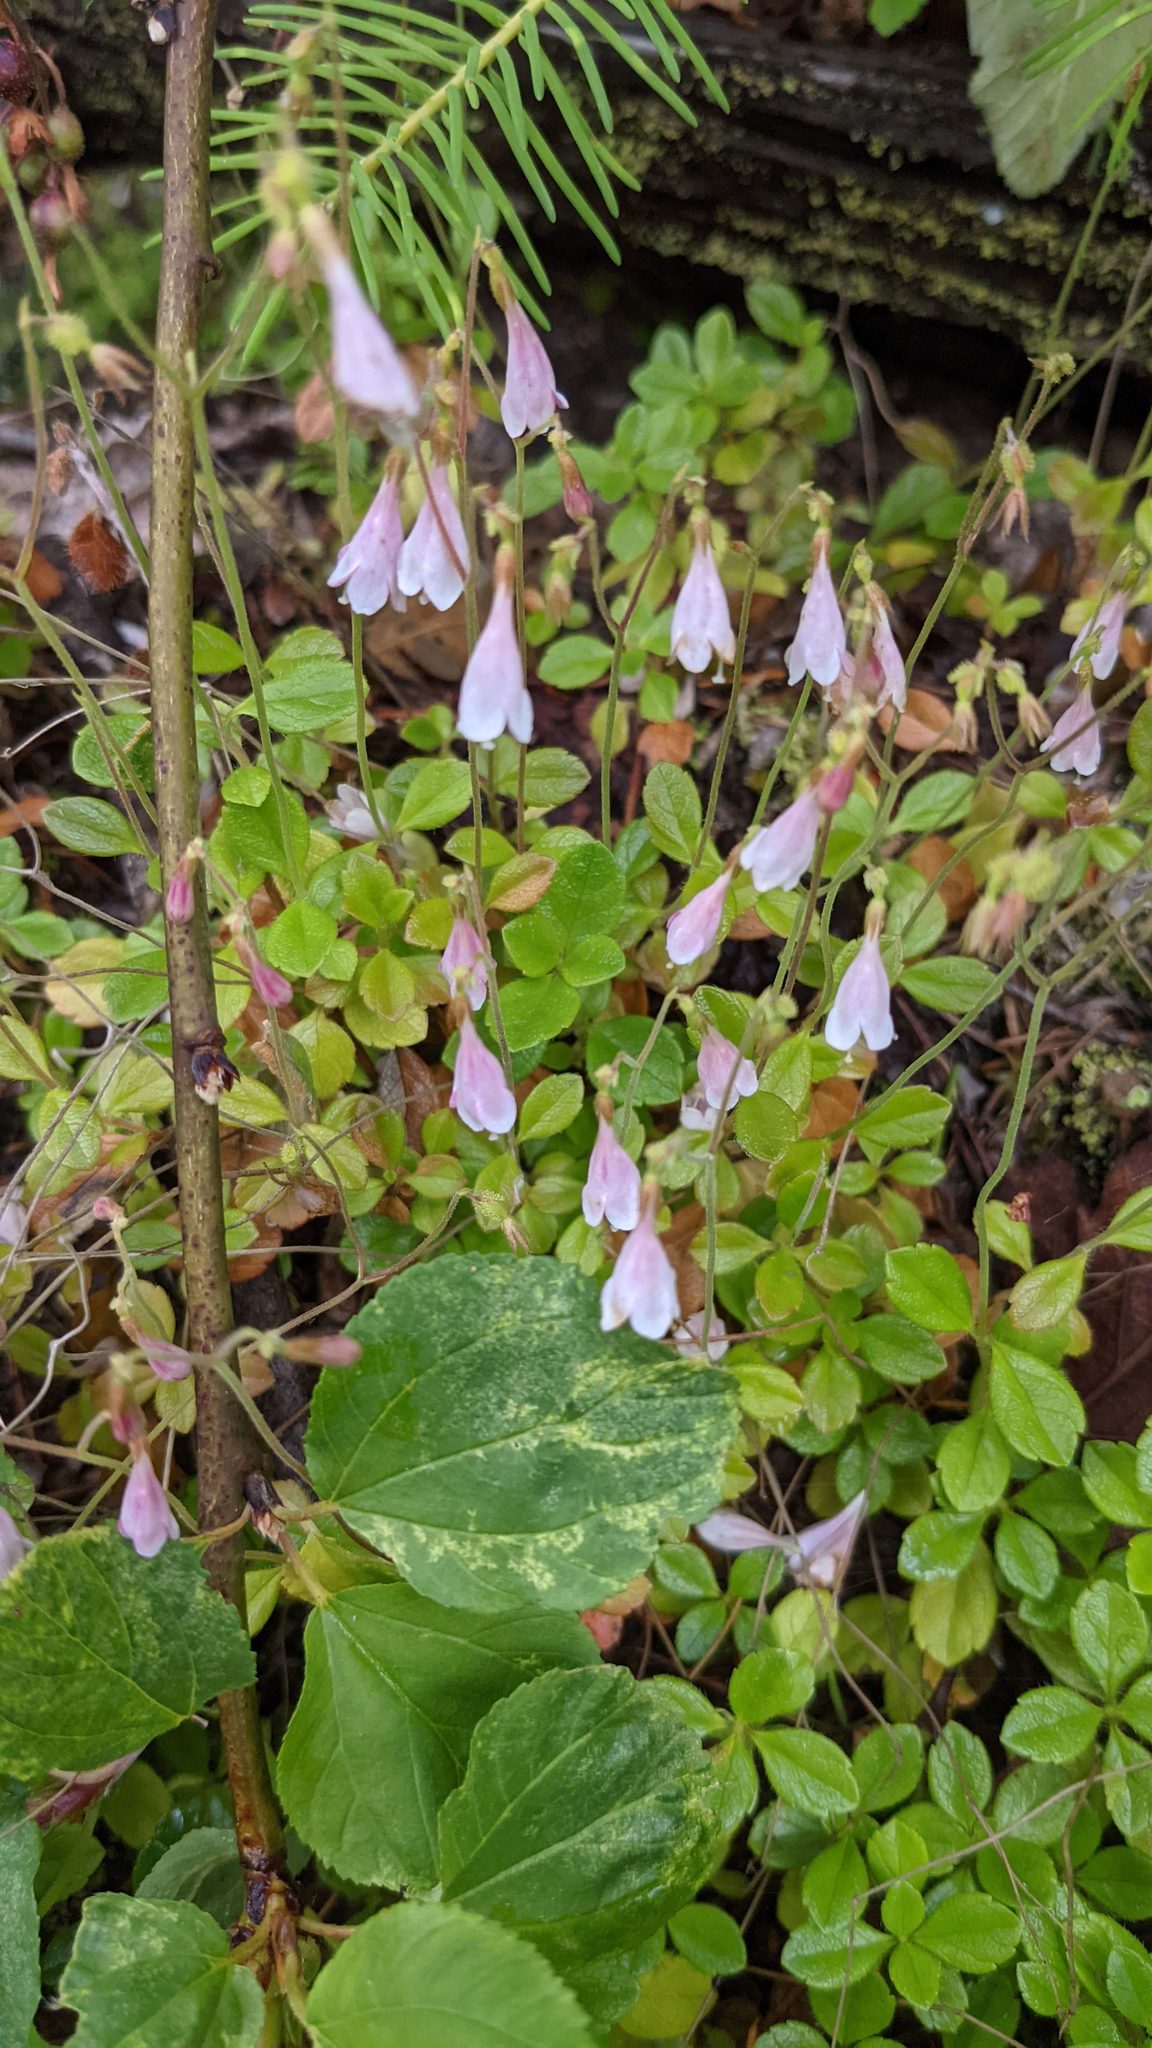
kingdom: Plantae
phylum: Tracheophyta
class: Magnoliopsida
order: Dipsacales
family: Caprifoliaceae
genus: Linnaea
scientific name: Linnaea borealis
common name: Twinflower
